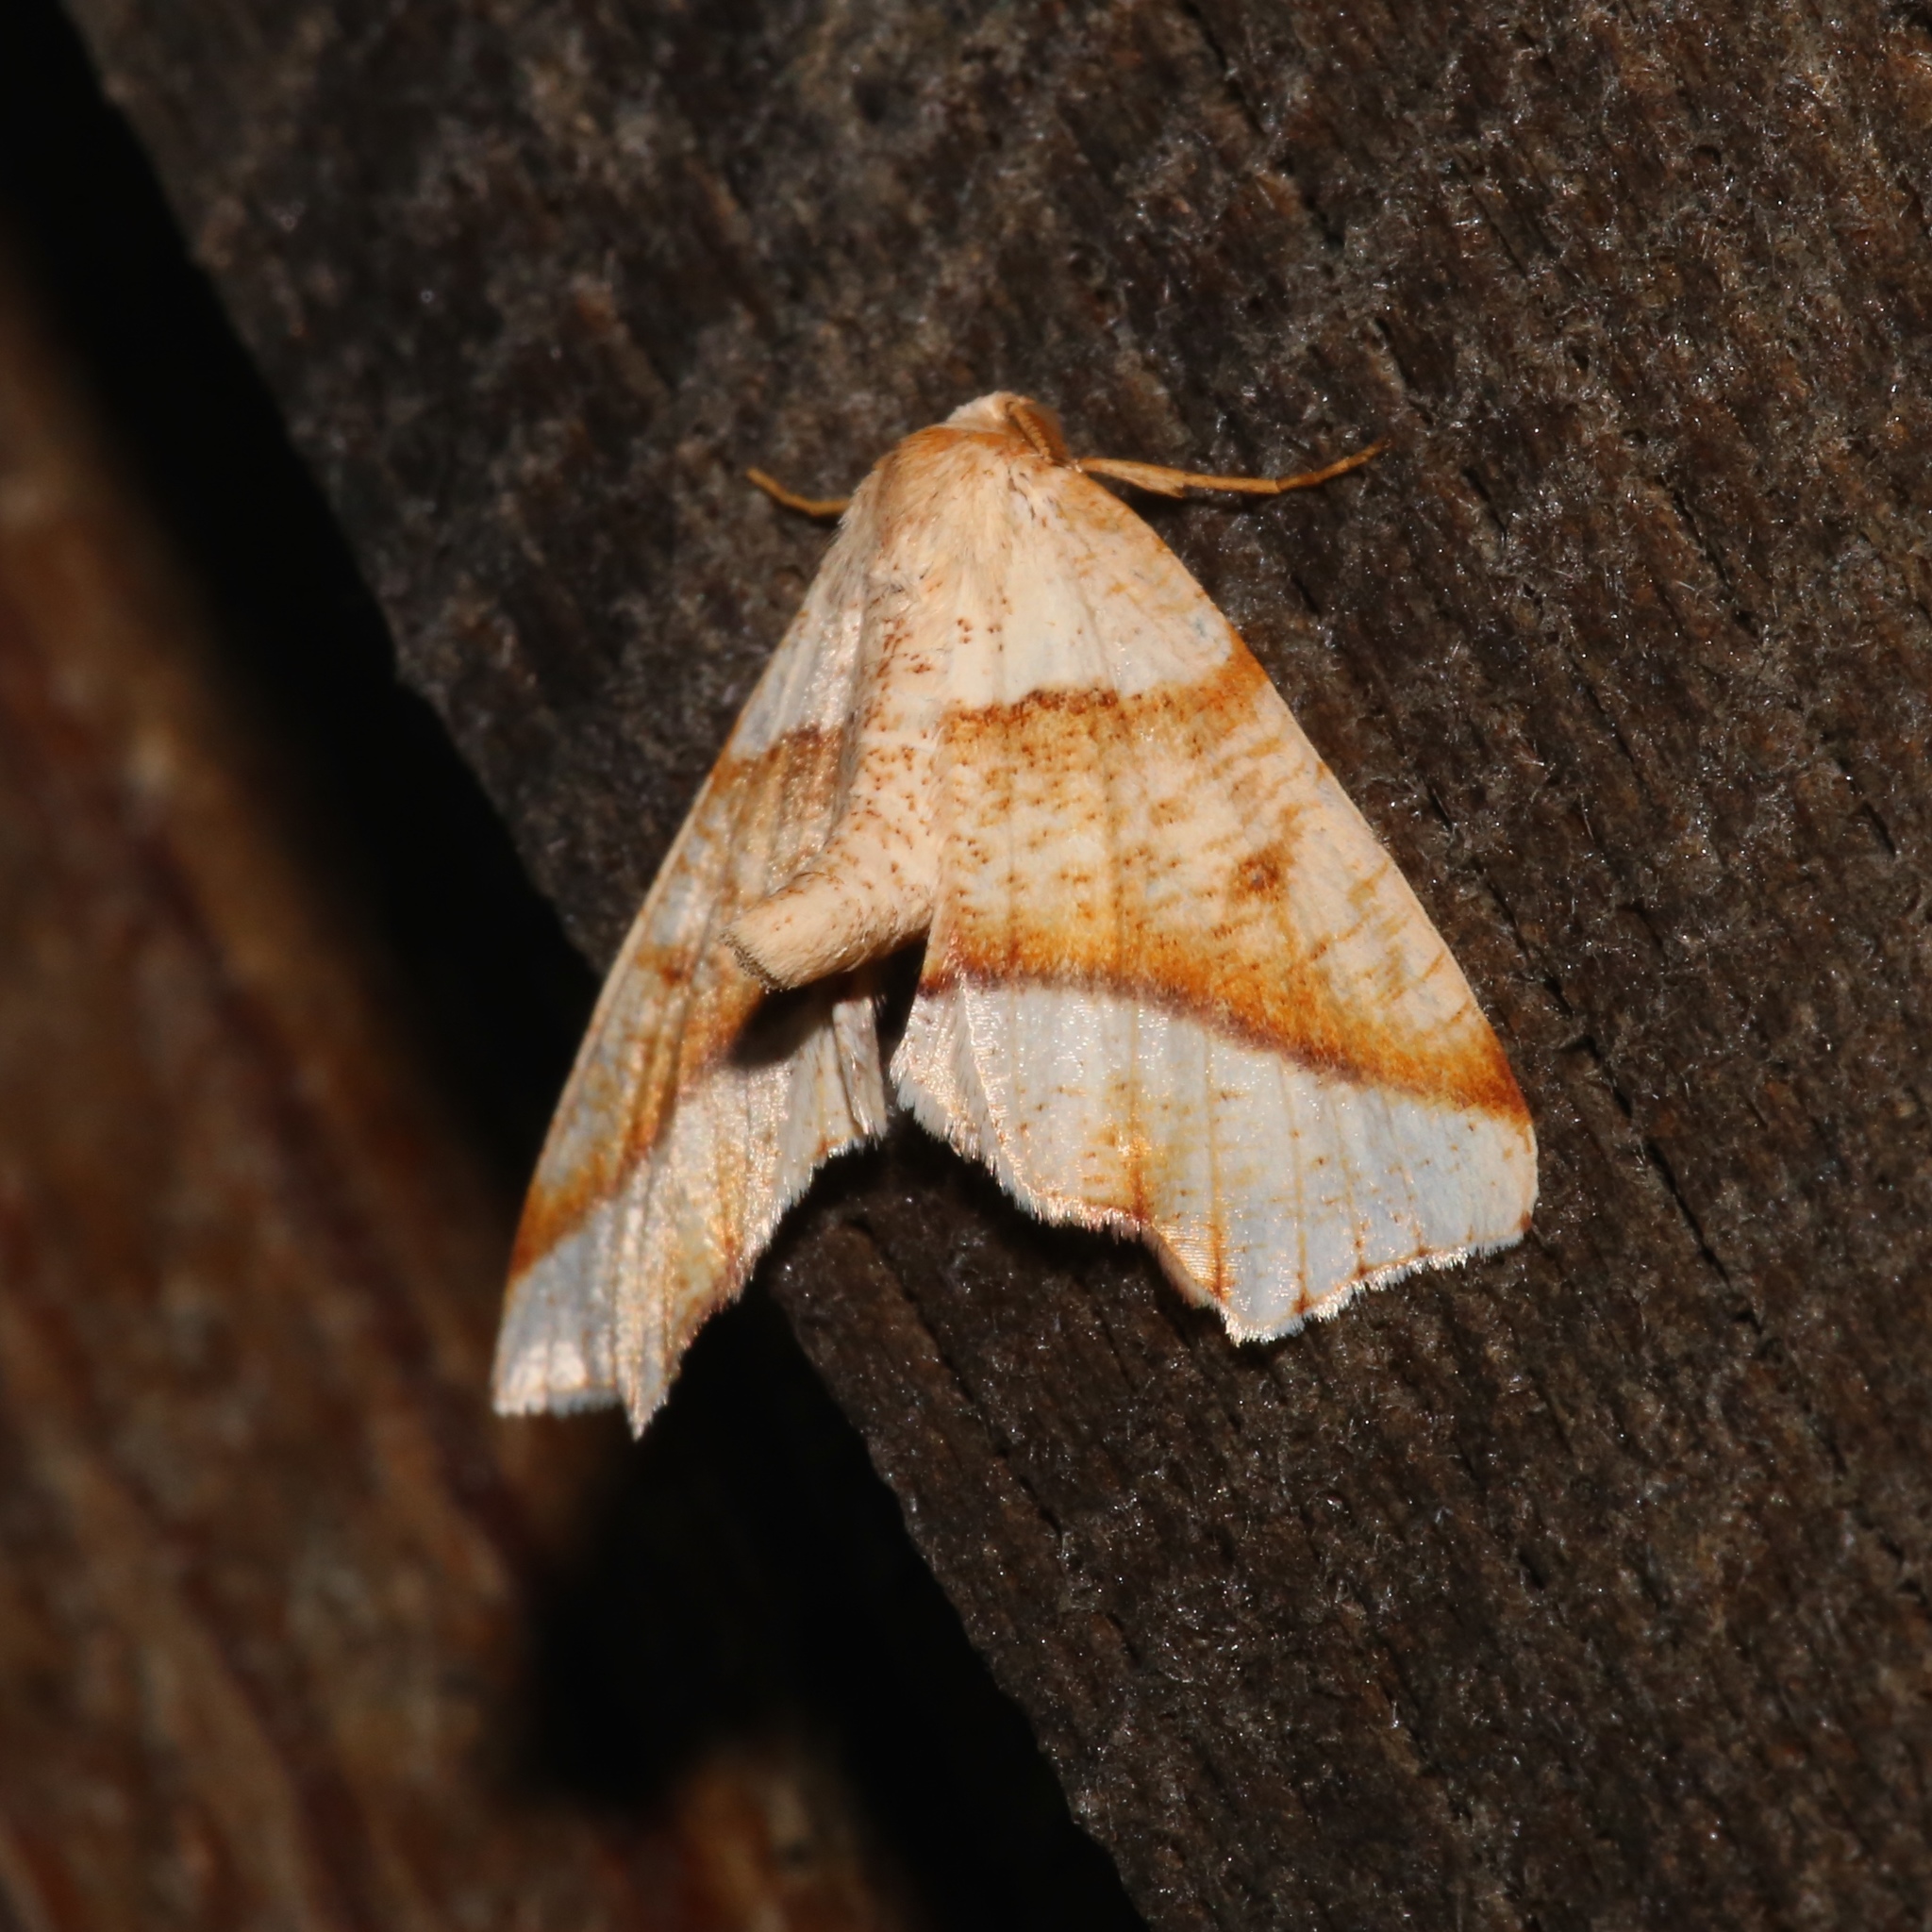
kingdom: Animalia
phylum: Arthropoda
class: Insecta
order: Lepidoptera
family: Geometridae
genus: Plagodis
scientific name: Plagodis alcoolaria
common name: Hollow-spotted plagodis
